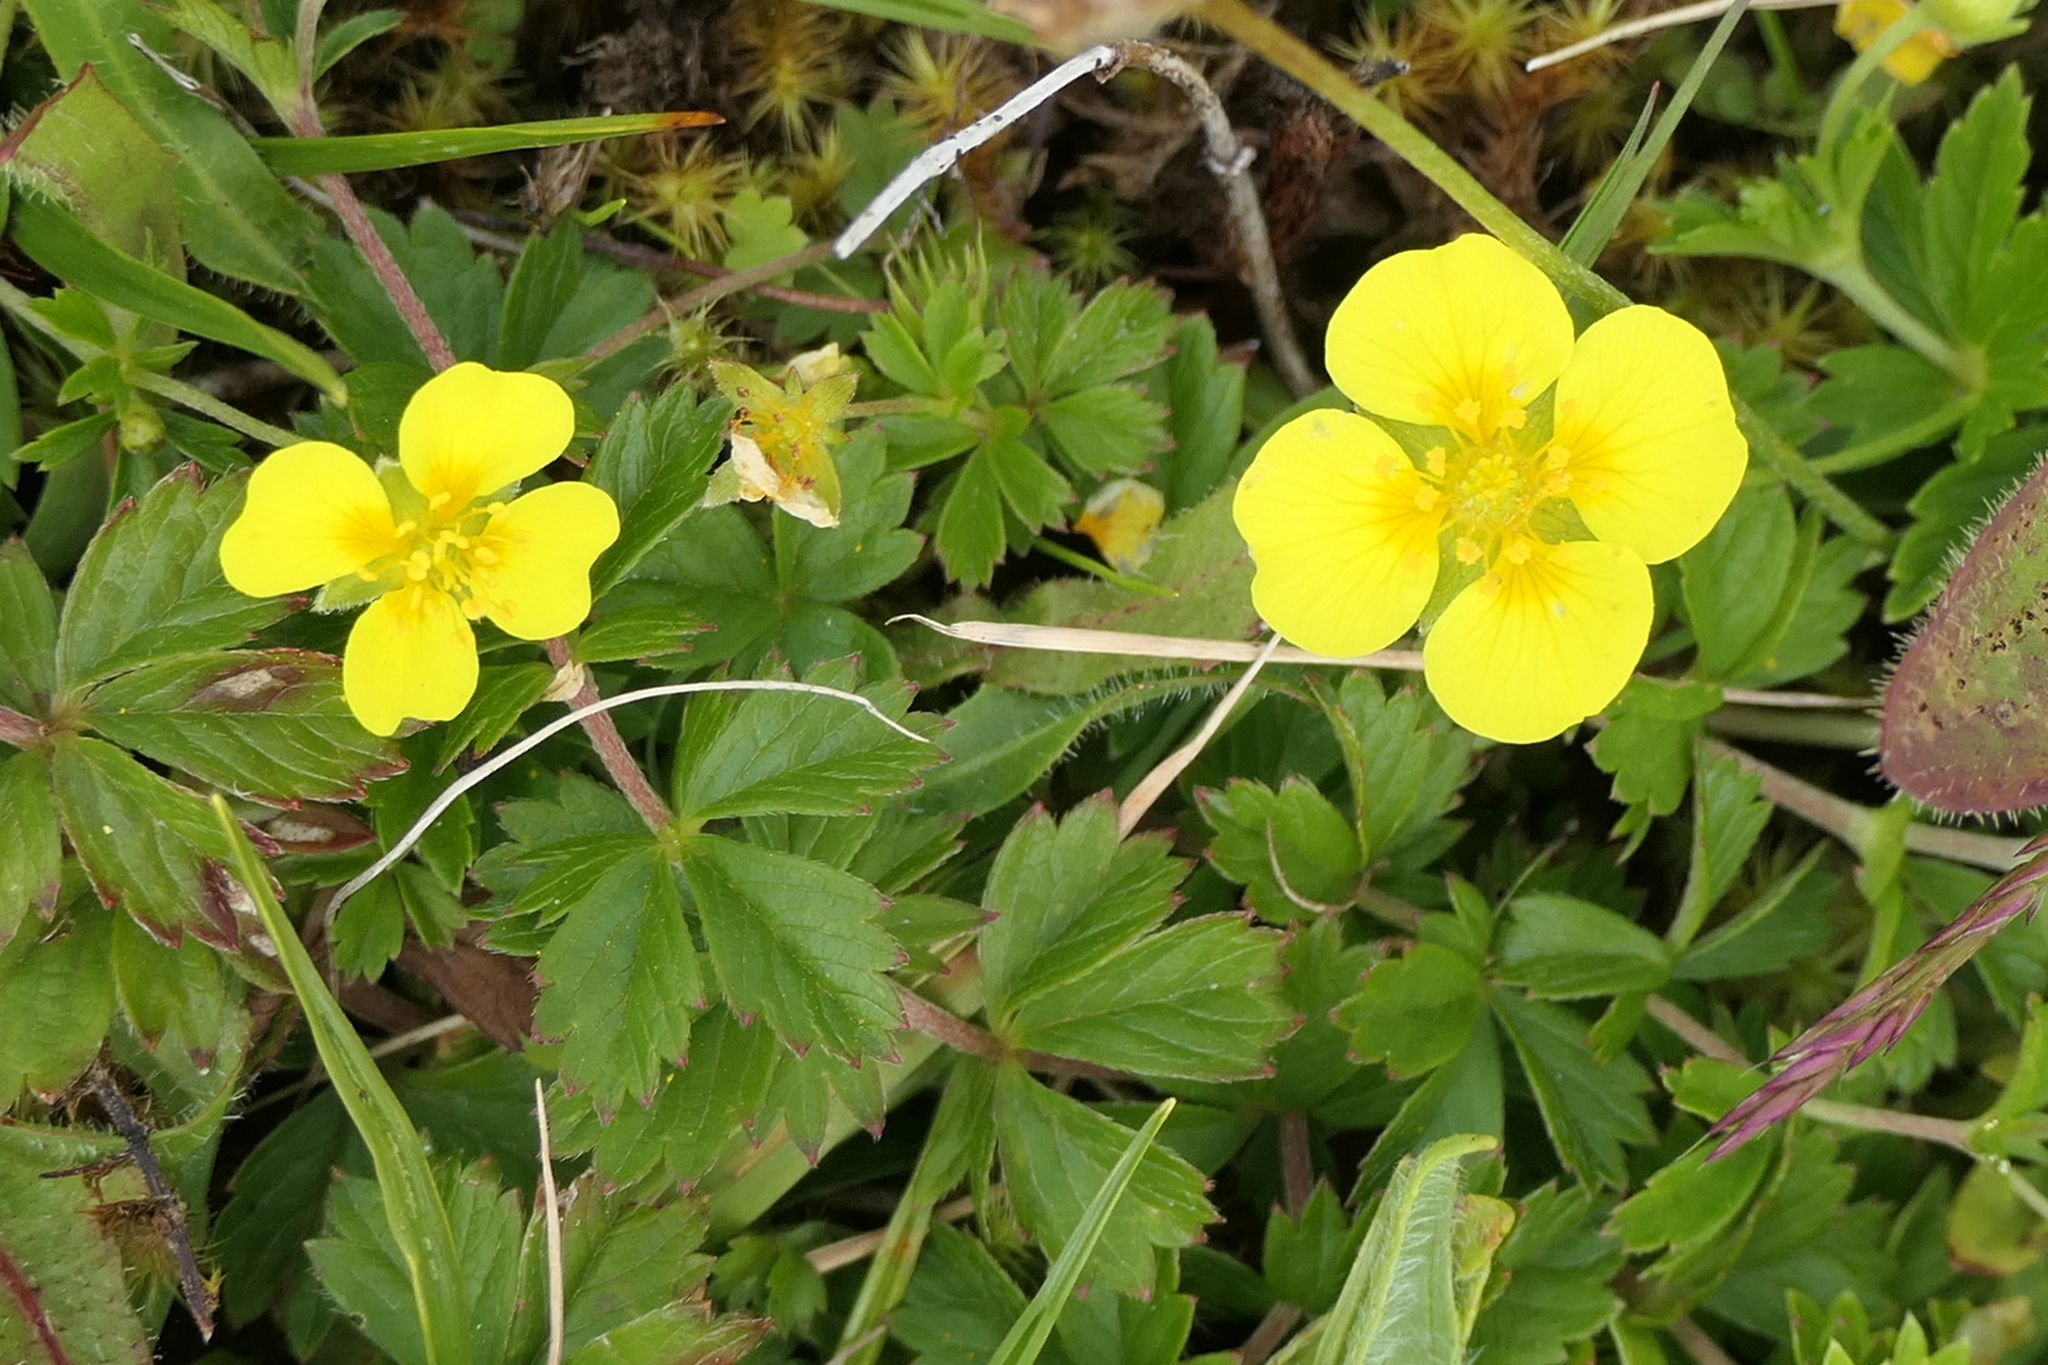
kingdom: Plantae
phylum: Tracheophyta
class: Magnoliopsida
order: Rosales
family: Rosaceae
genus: Potentilla
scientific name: Potentilla erecta
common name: Tormentil
